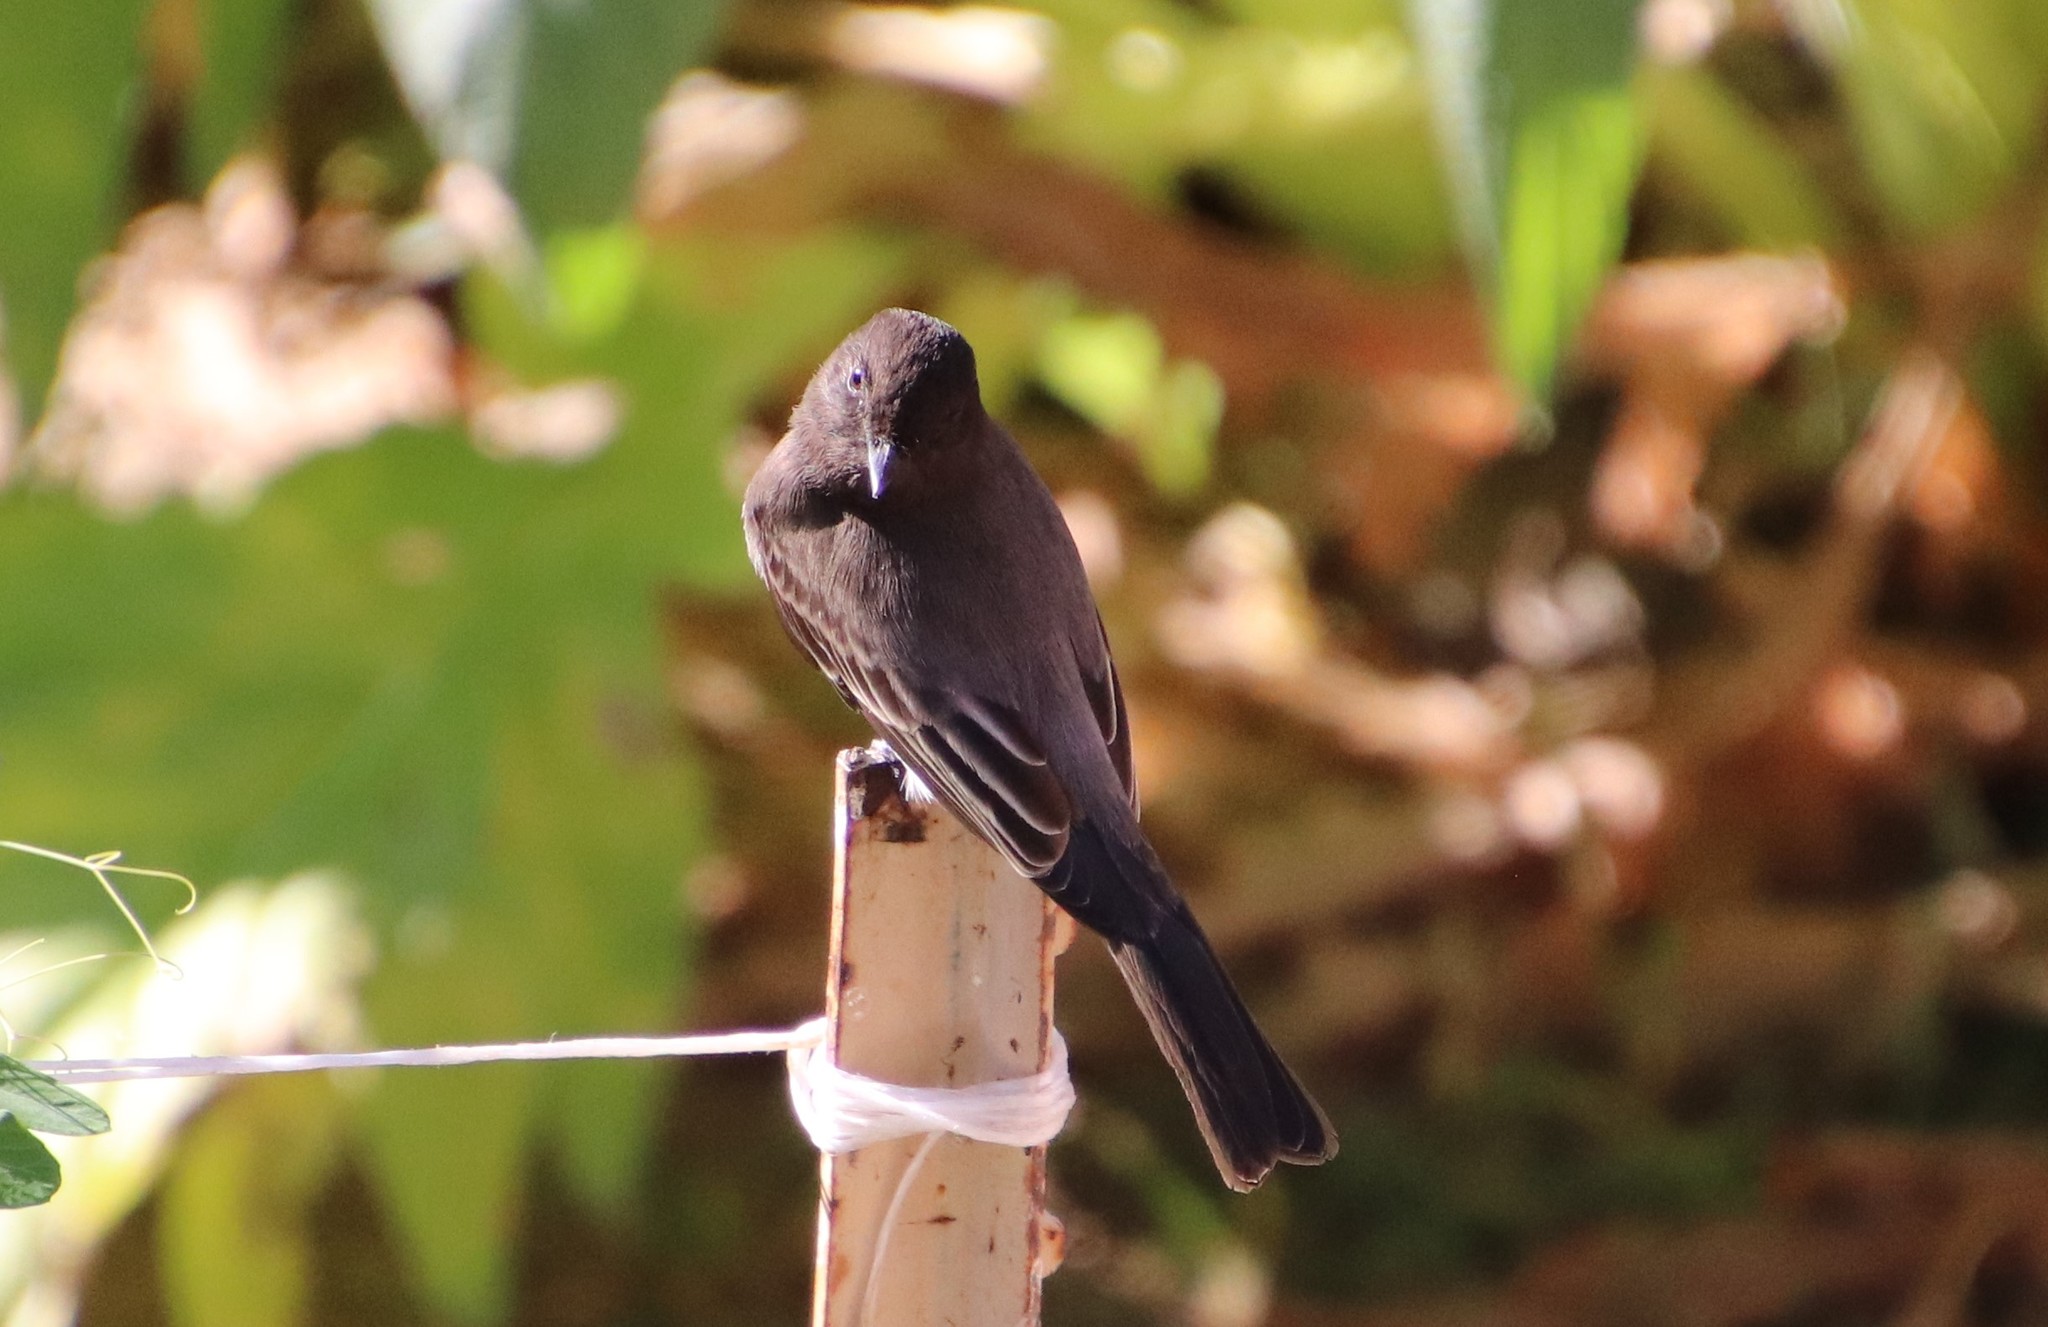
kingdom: Animalia
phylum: Chordata
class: Aves
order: Passeriformes
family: Tyrannidae
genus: Sayornis
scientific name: Sayornis nigricans
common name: Black phoebe
